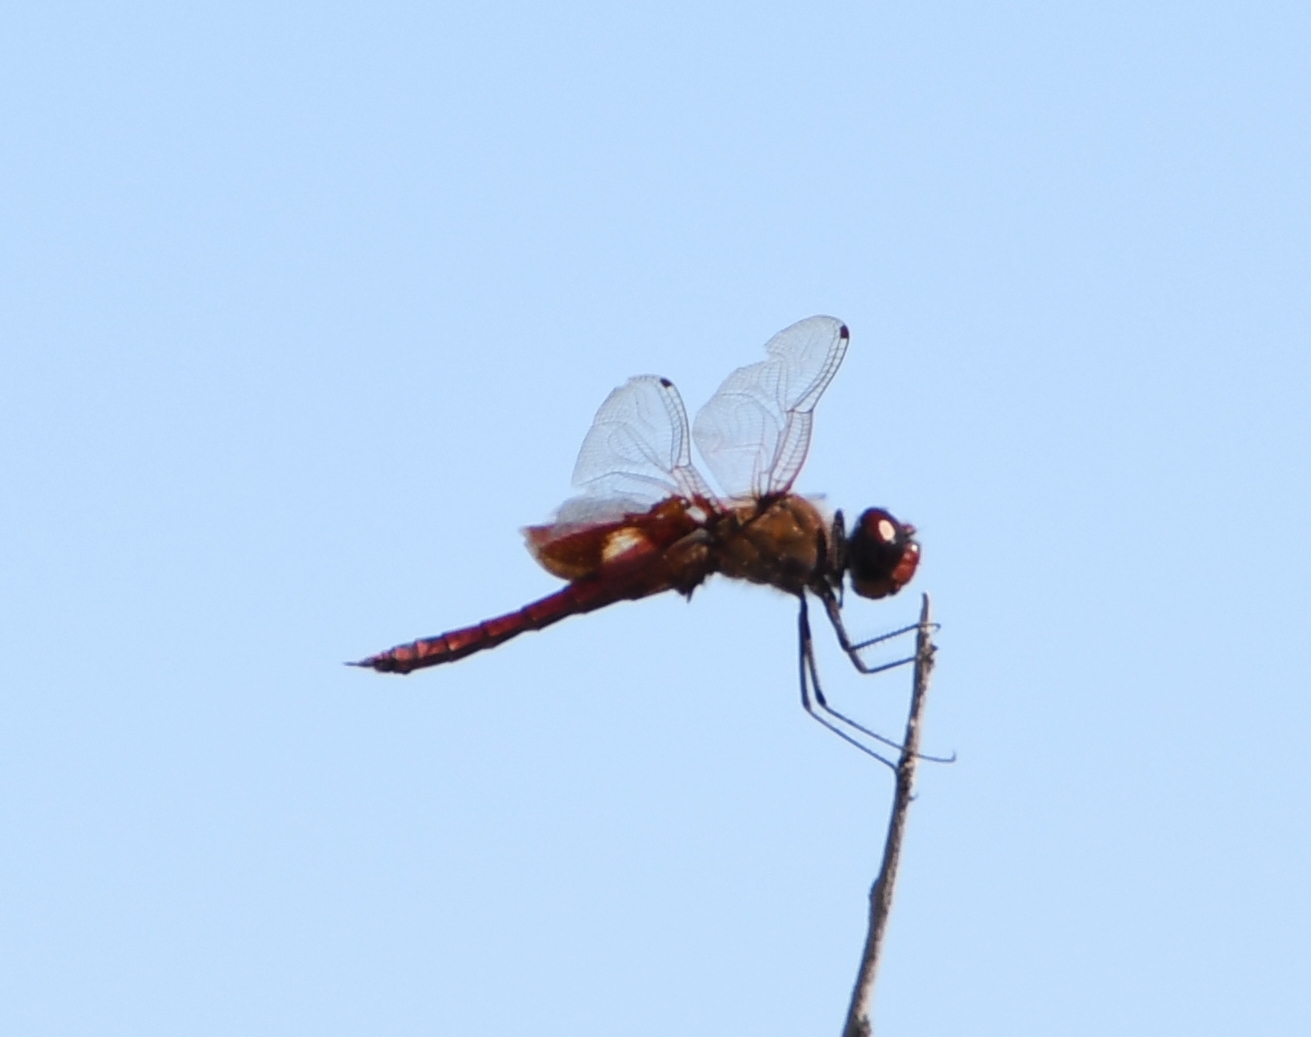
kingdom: Animalia
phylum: Arthropoda
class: Insecta
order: Odonata
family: Libellulidae
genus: Tramea
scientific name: Tramea onusta
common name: Red saddlebags
